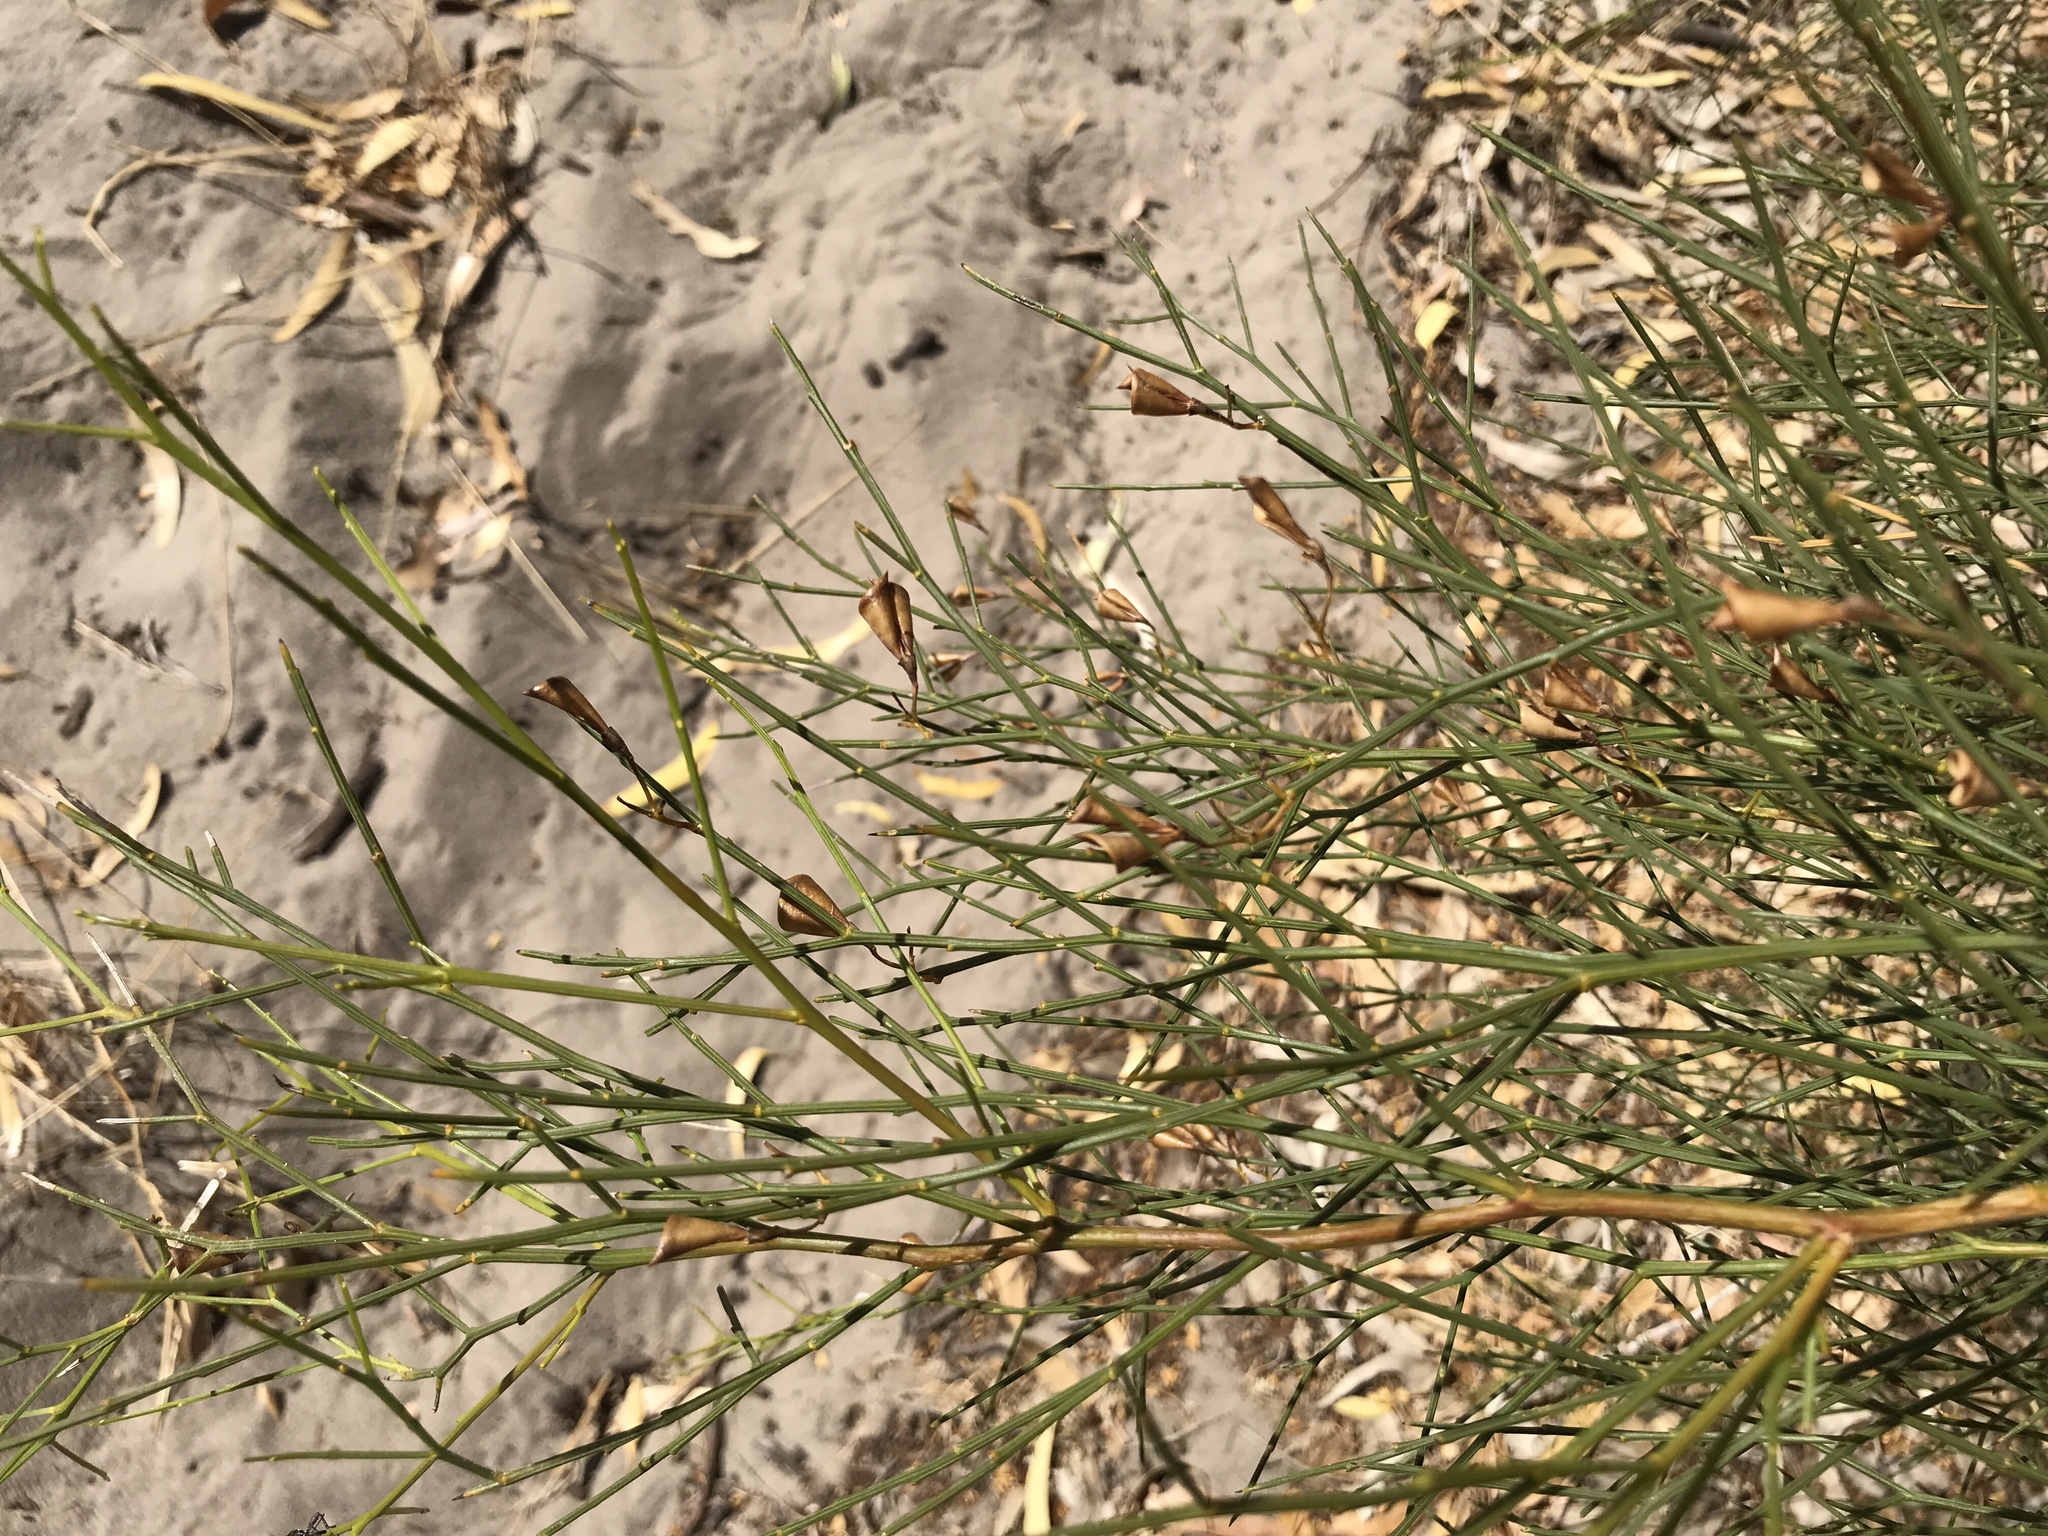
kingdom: Plantae
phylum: Tracheophyta
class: Magnoliopsida
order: Fabales
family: Fabaceae
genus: Daviesia
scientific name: Daviesia divaricata
